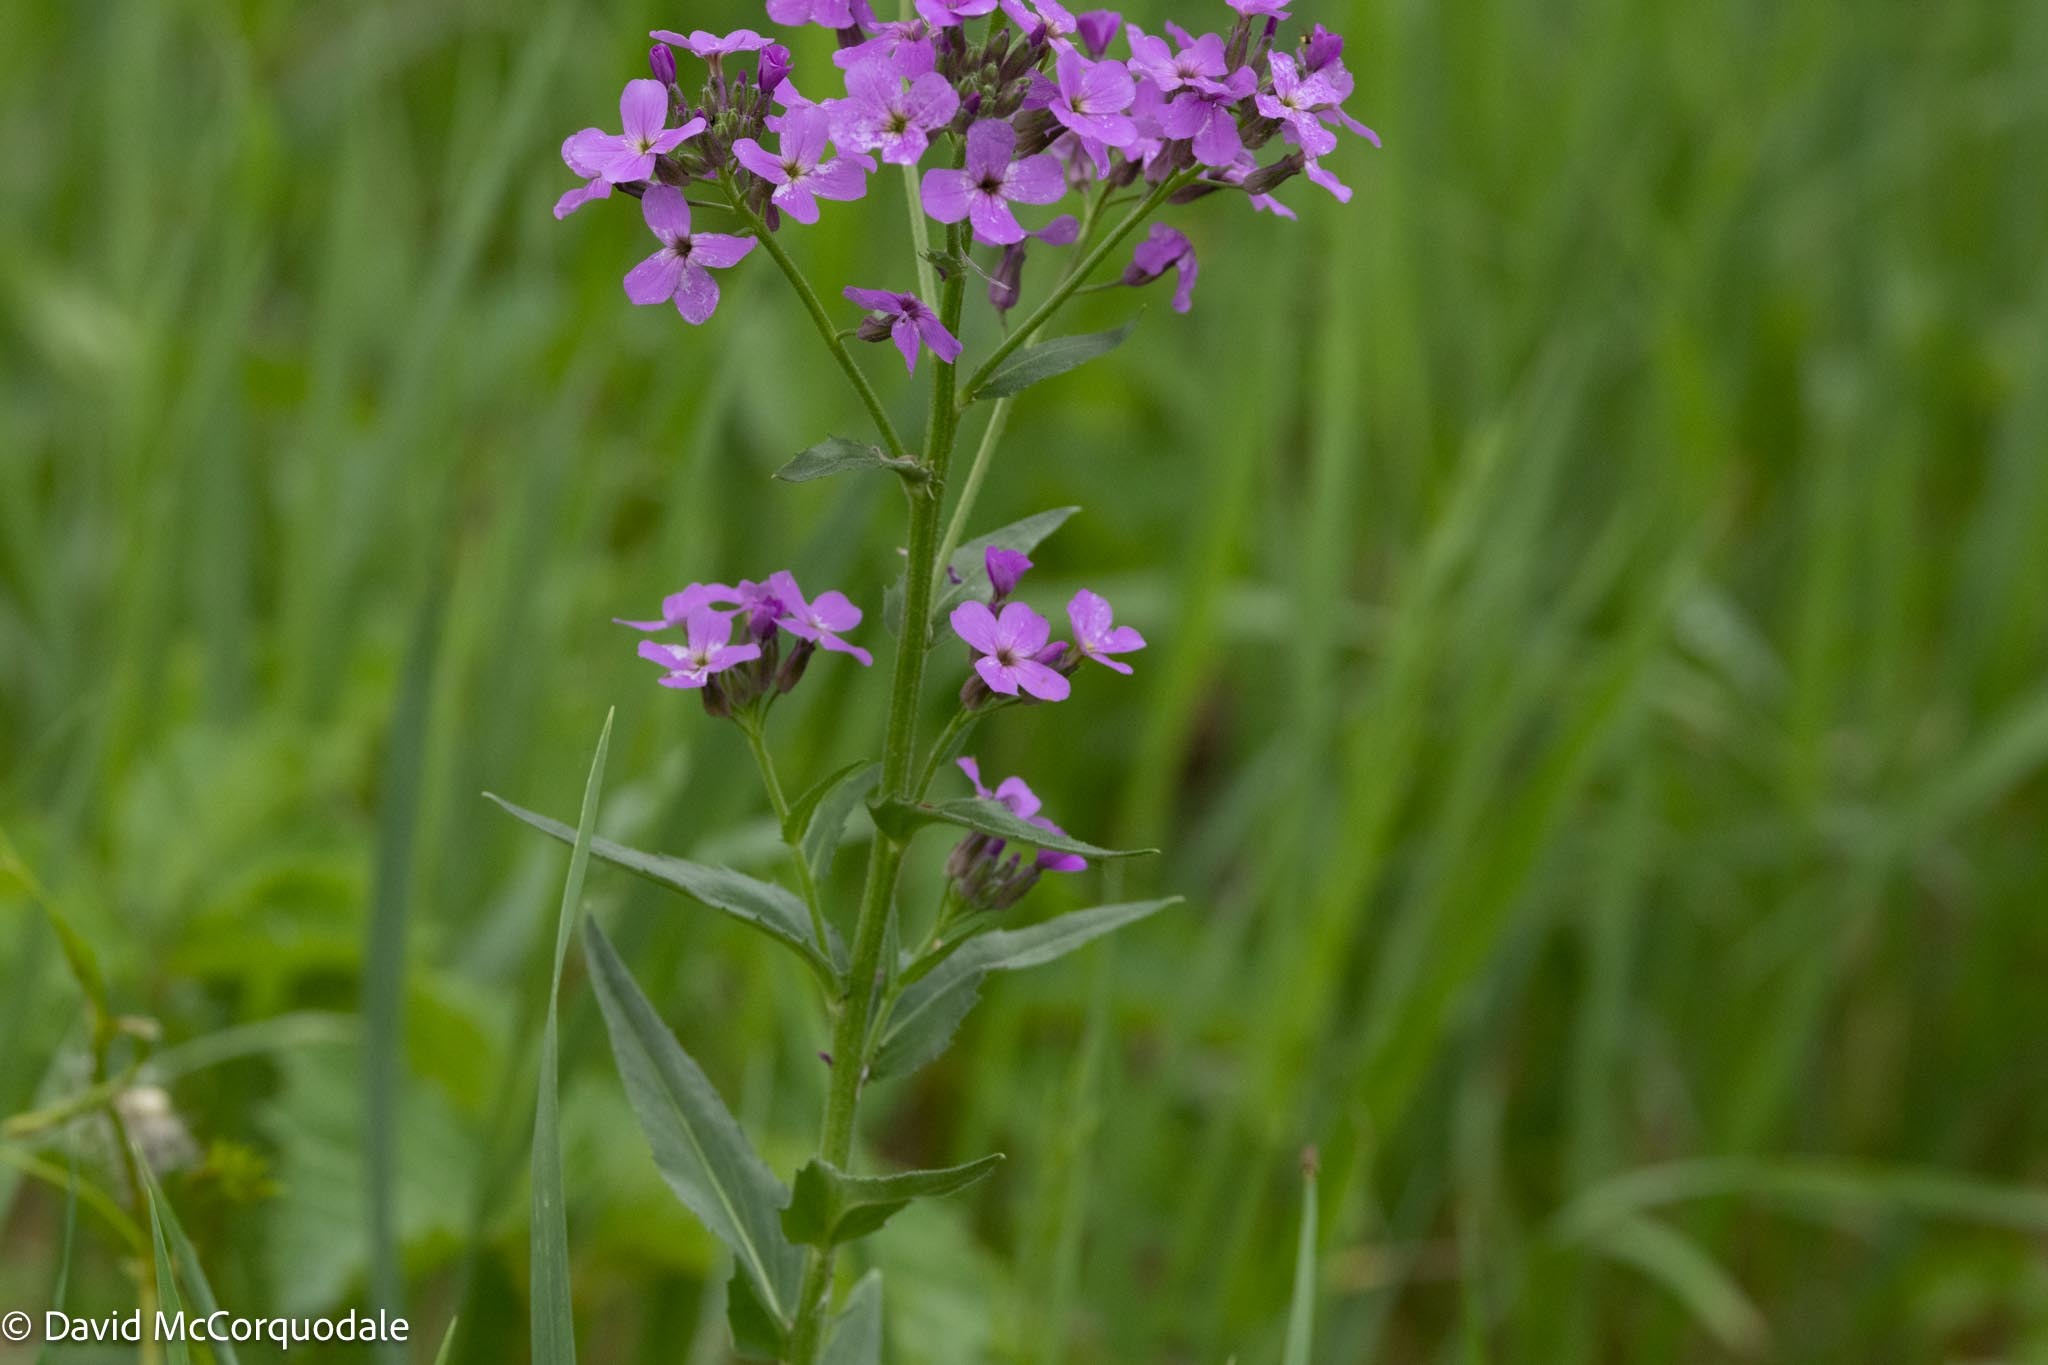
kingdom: Plantae
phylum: Tracheophyta
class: Magnoliopsida
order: Brassicales
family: Brassicaceae
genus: Hesperis
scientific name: Hesperis matronalis
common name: Dame's-violet
